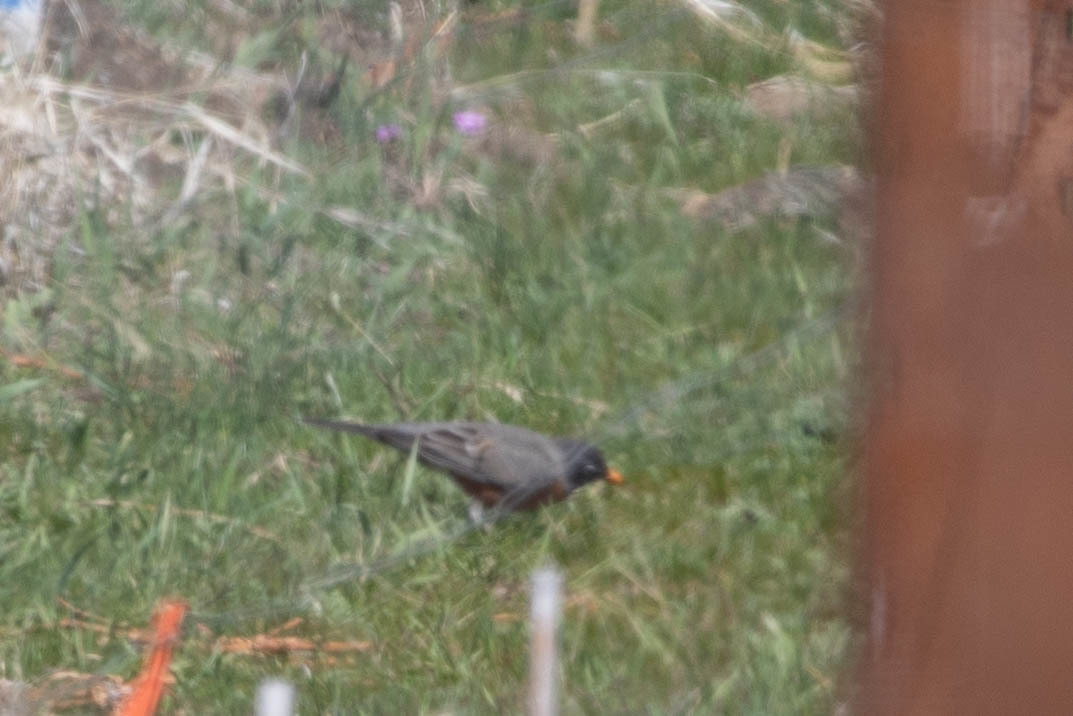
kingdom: Animalia
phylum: Chordata
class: Aves
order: Passeriformes
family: Turdidae
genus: Turdus
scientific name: Turdus migratorius
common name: American robin
